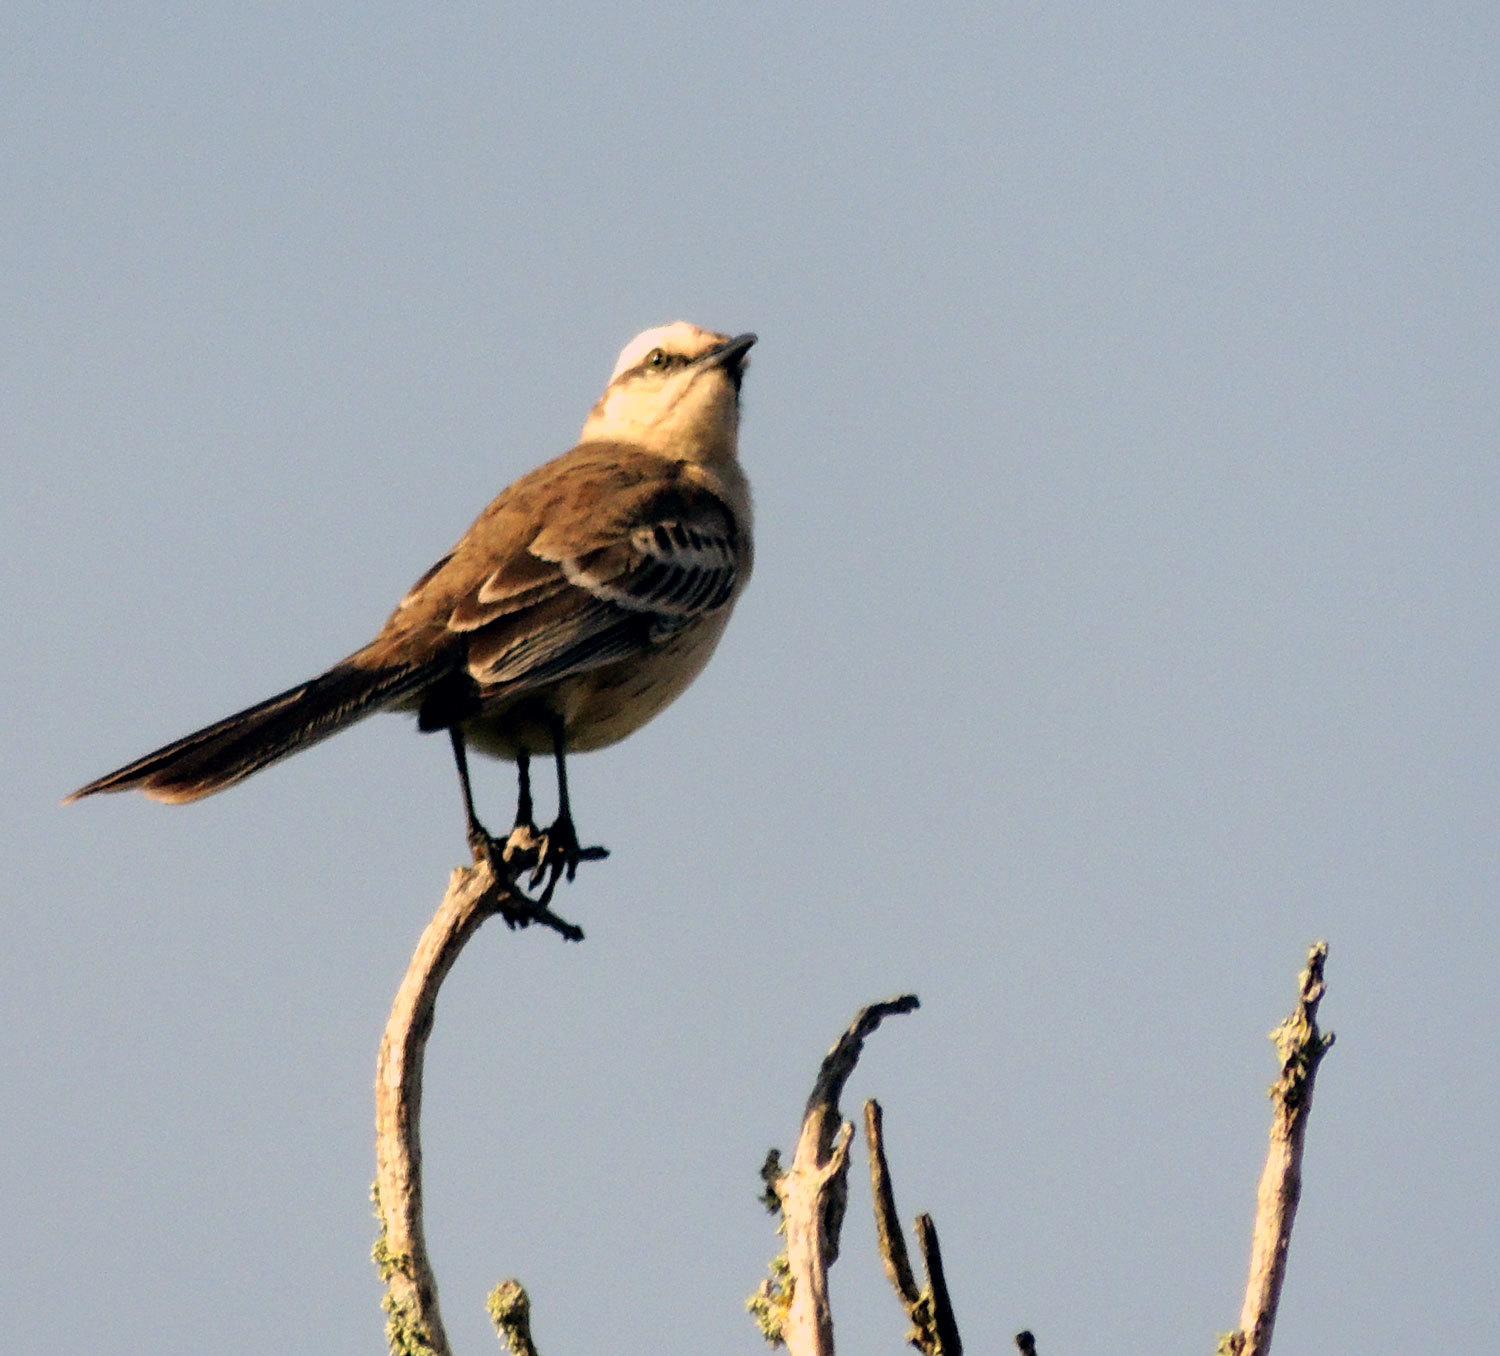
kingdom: Animalia
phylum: Chordata
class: Aves
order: Passeriformes
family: Mimidae
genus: Mimus
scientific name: Mimus saturninus
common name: Chalk-browed mockingbird
